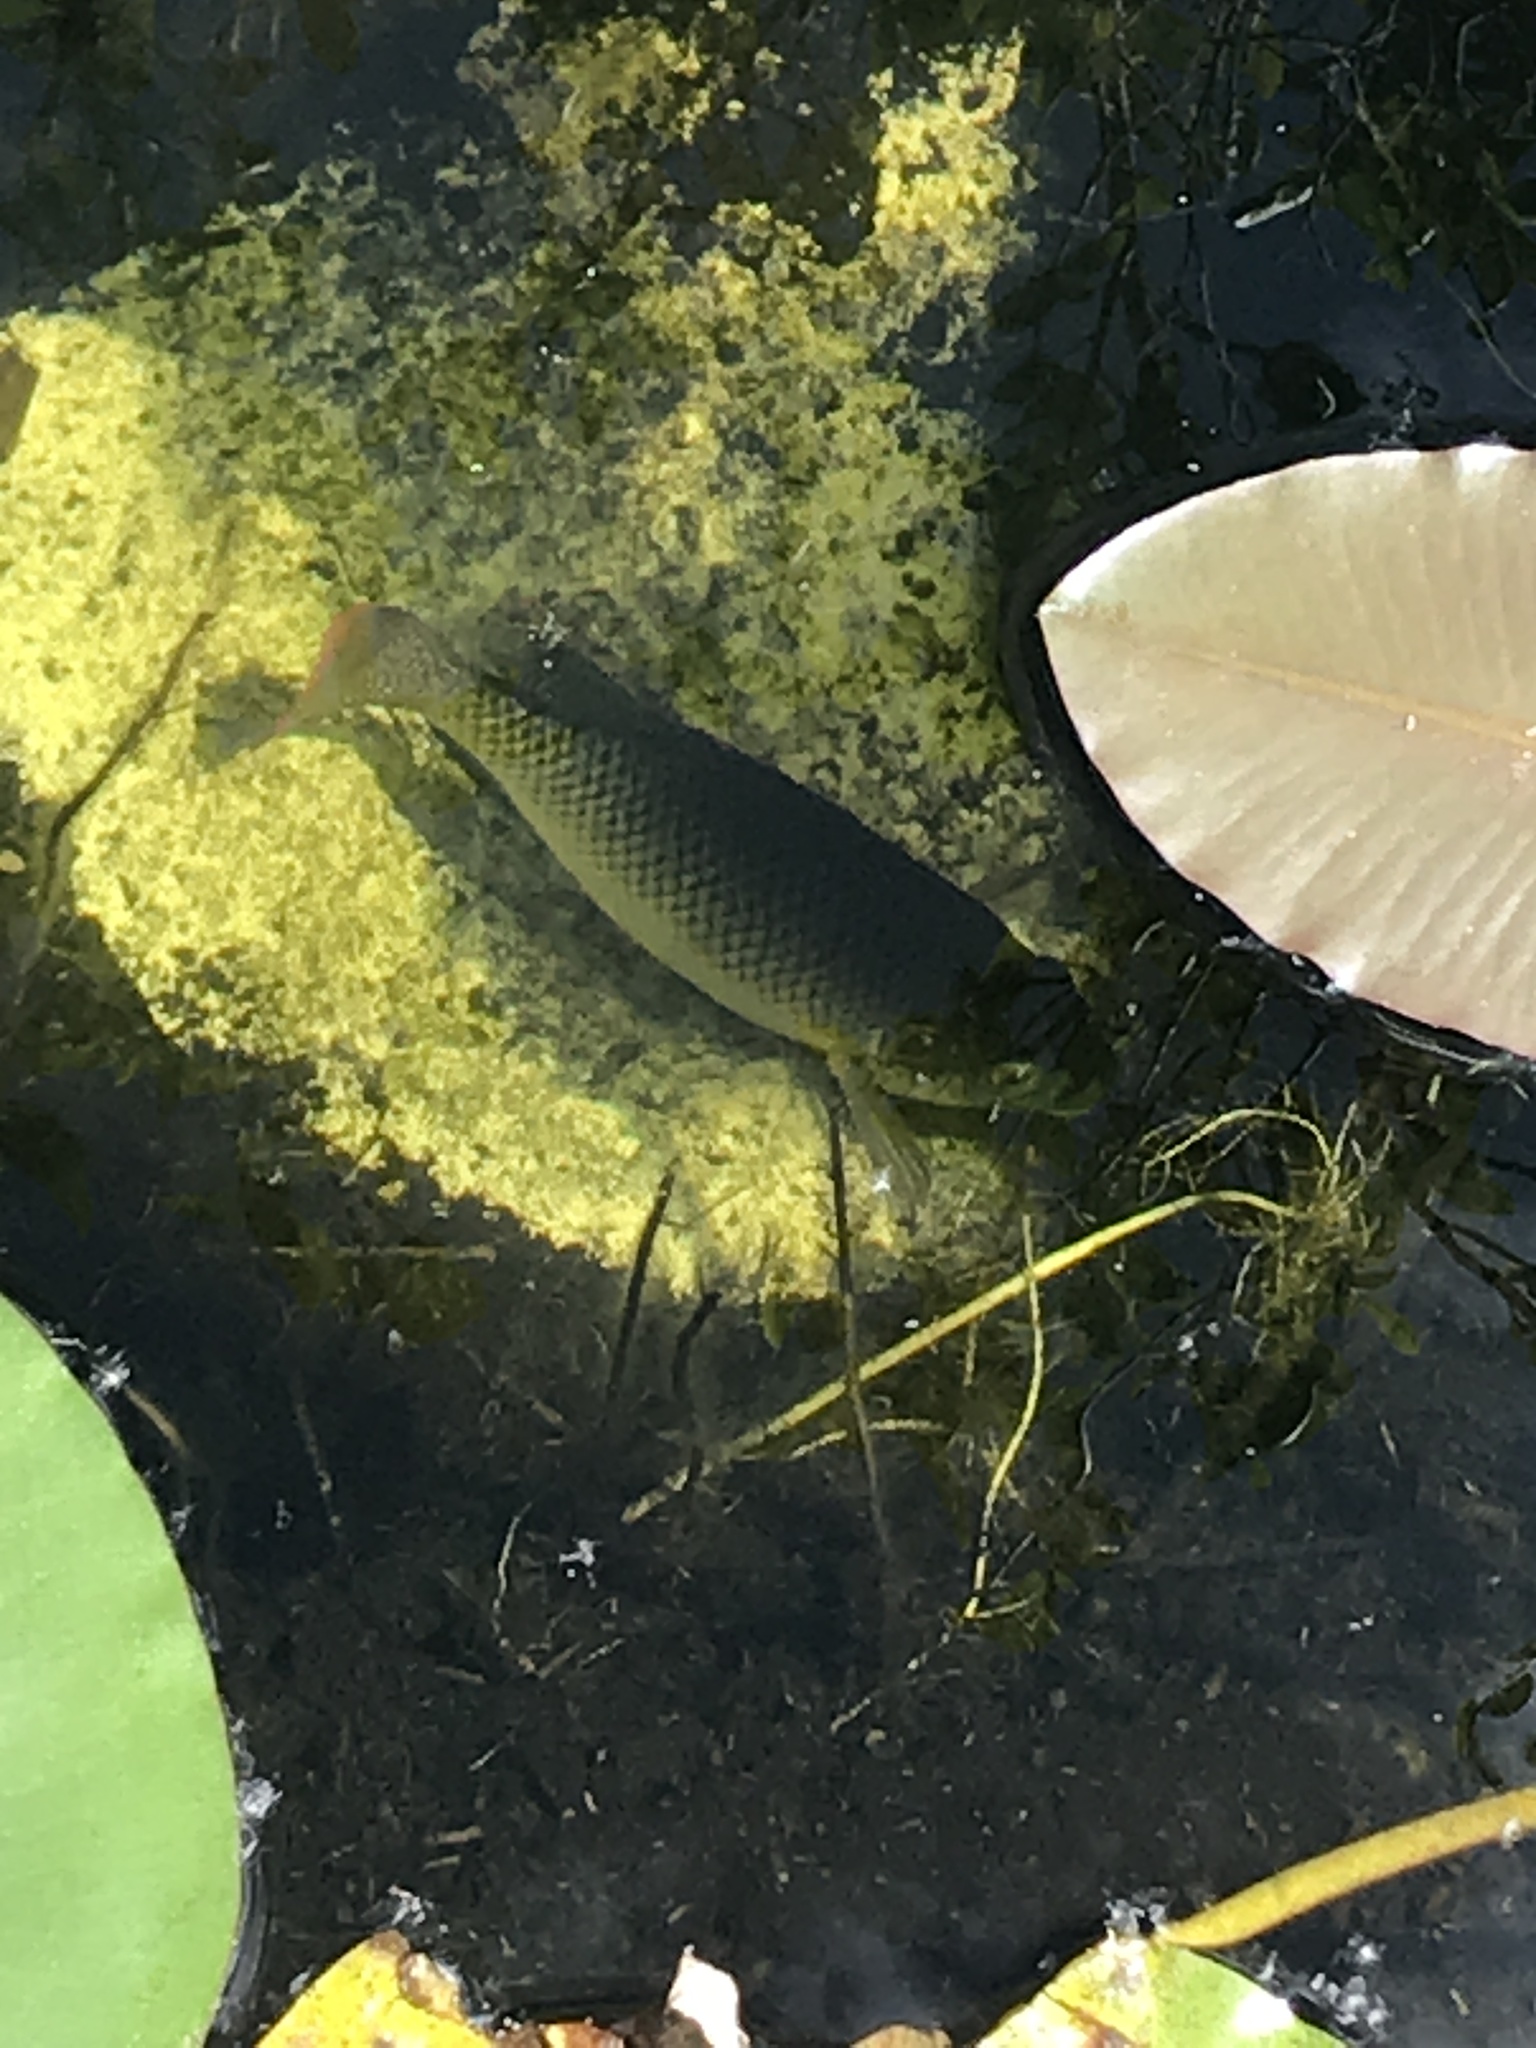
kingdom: Animalia
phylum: Chordata
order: Perciformes
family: Cichlidae
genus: Oreochromis
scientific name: Oreochromis aureus
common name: Blue tilapia
